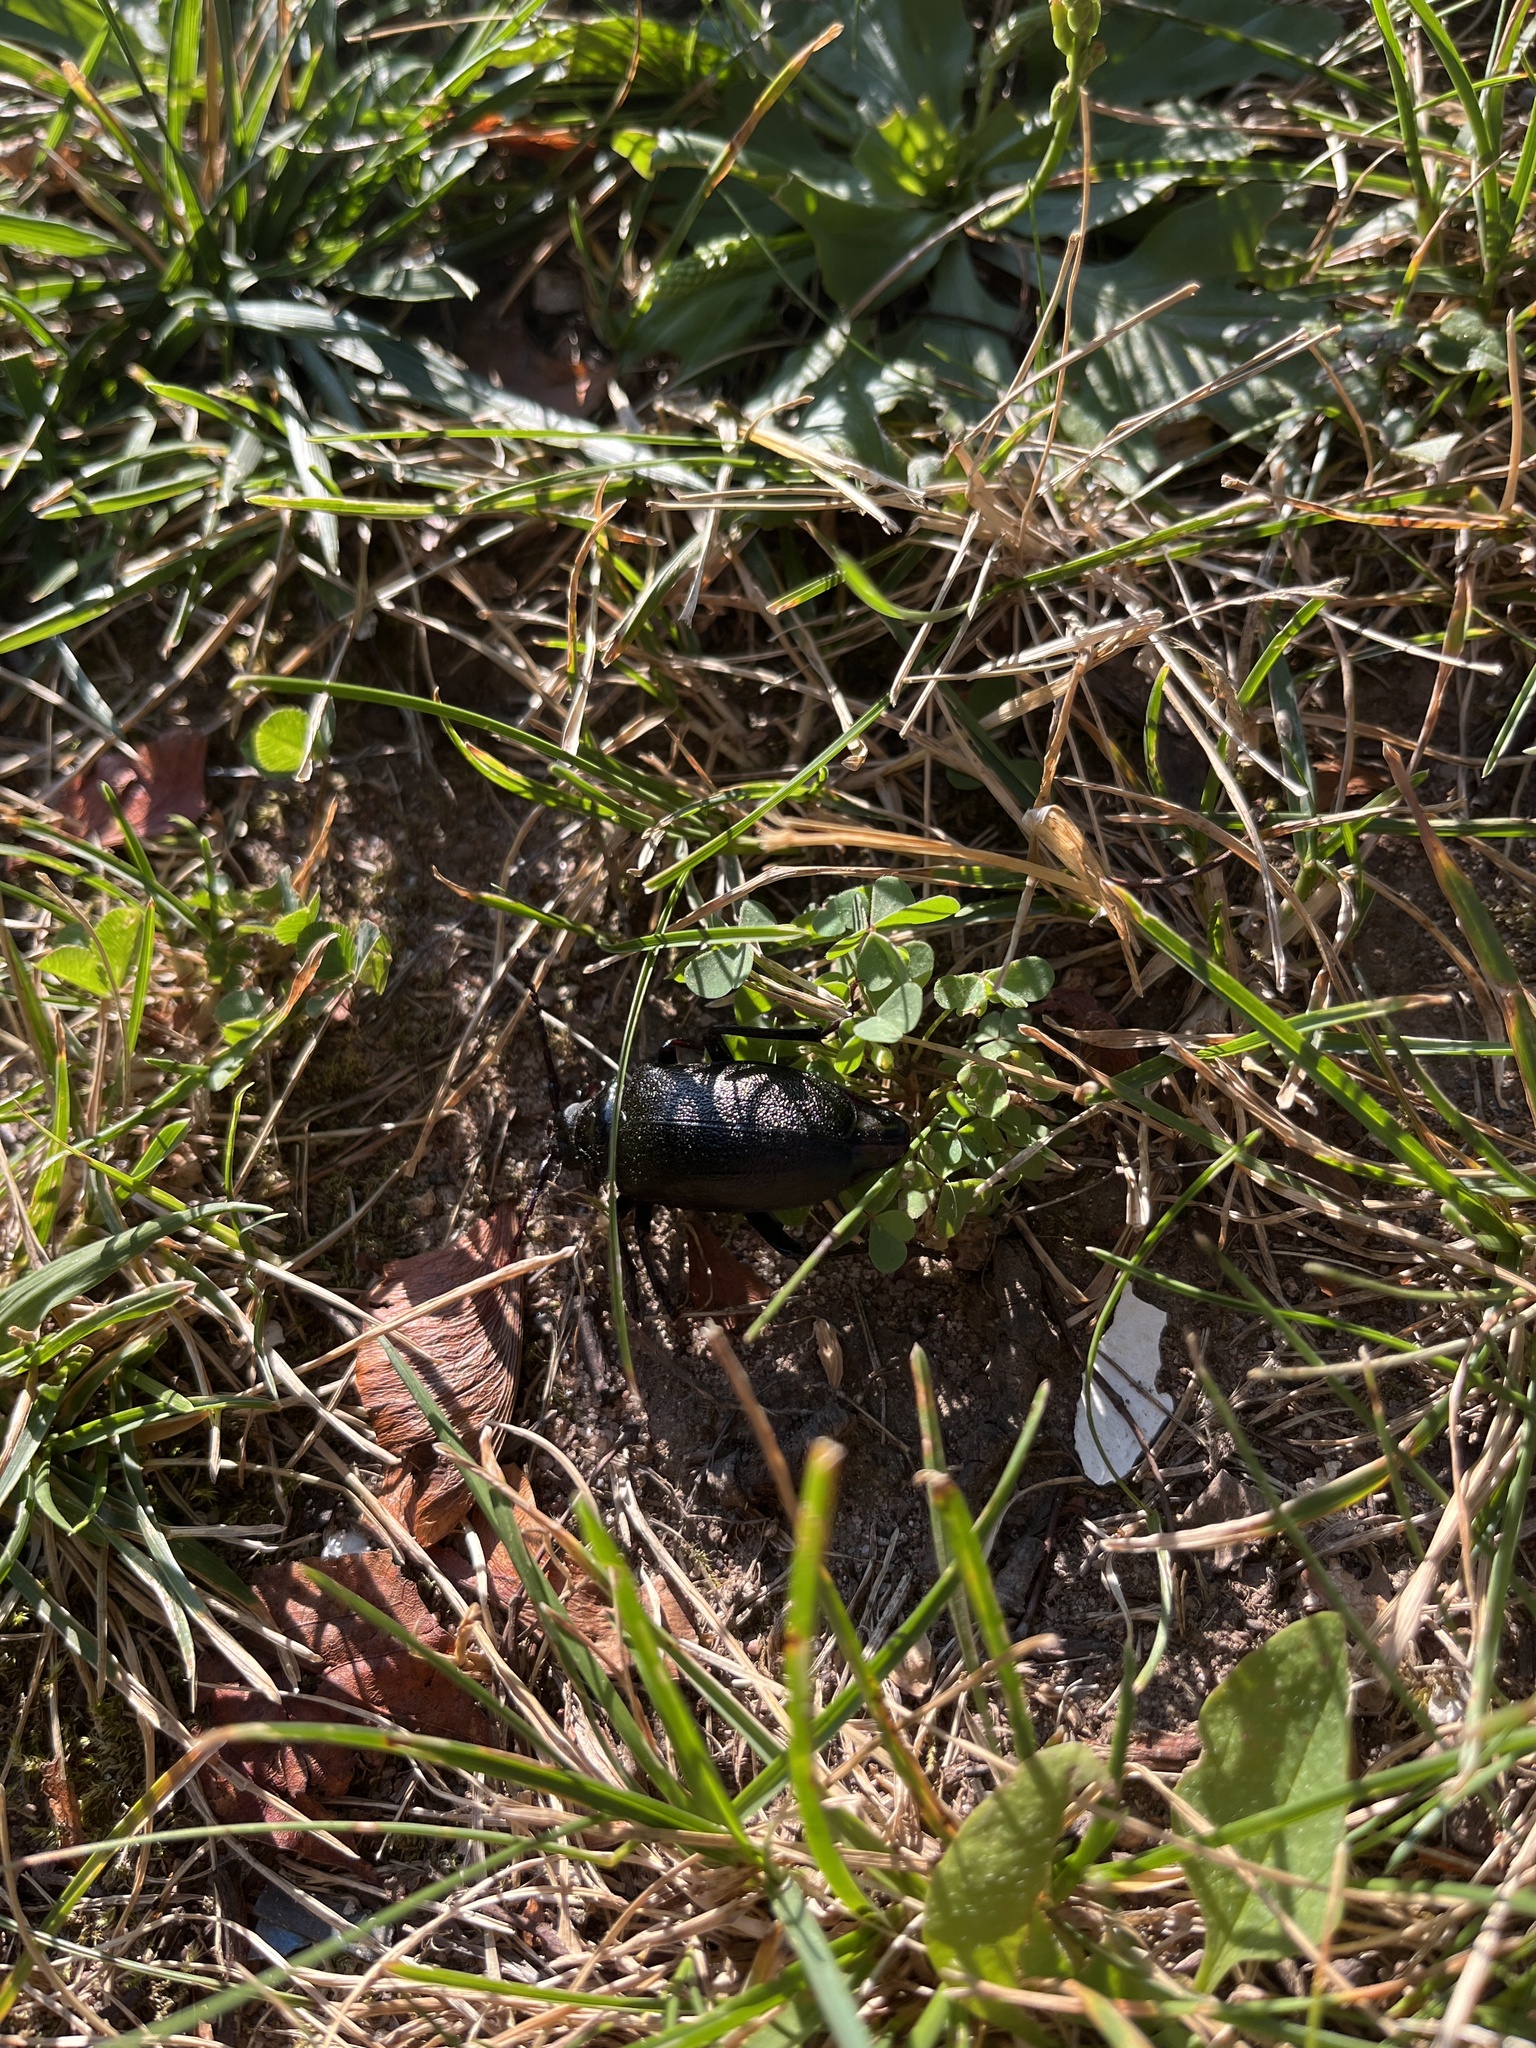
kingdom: Animalia
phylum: Arthropoda
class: Insecta
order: Coleoptera
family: Cerambycidae
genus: Prionus
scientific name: Prionus laticollis
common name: Broad necked prionus
